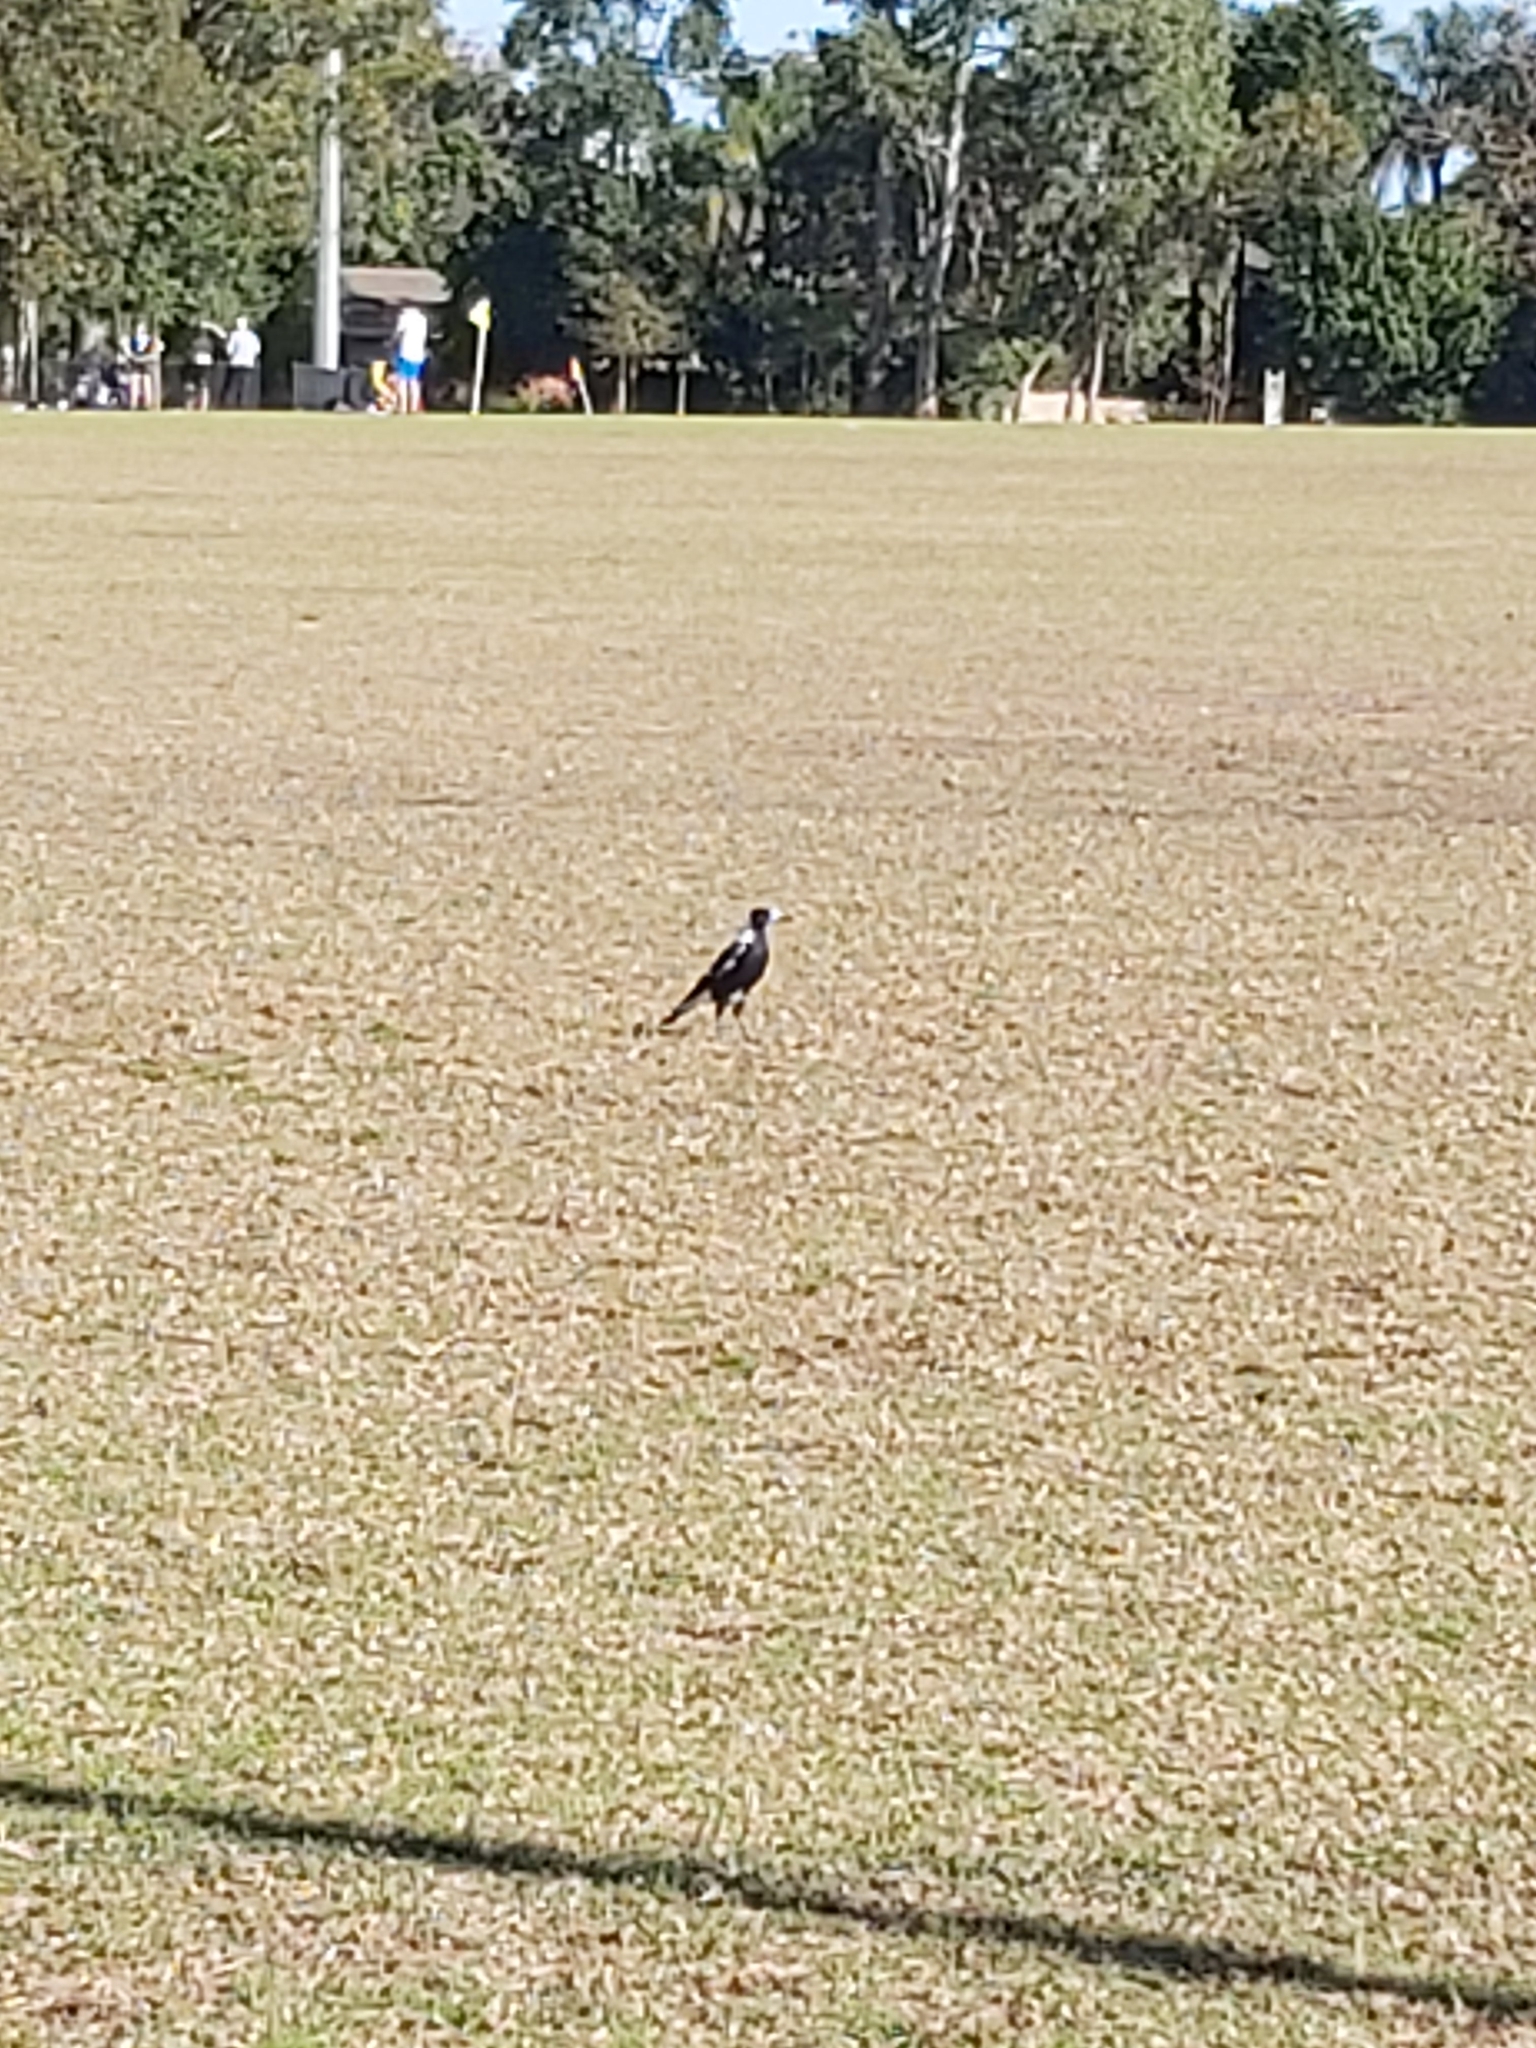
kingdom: Animalia
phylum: Chordata
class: Aves
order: Passeriformes
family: Cracticidae
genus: Gymnorhina
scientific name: Gymnorhina tibicen
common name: Australian magpie
